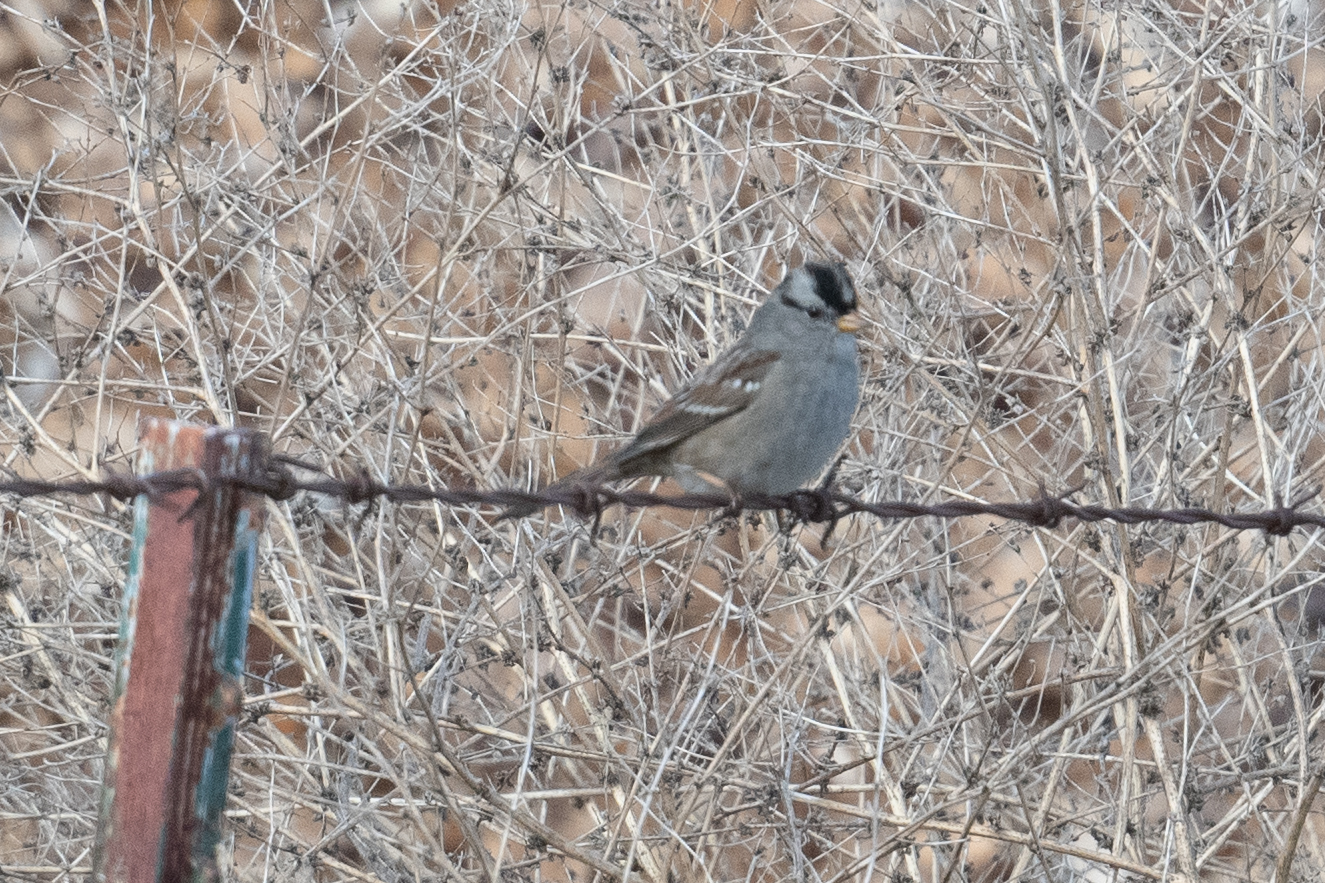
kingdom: Animalia
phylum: Chordata
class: Aves
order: Passeriformes
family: Passerellidae
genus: Zonotrichia
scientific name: Zonotrichia leucophrys
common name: White-crowned sparrow
